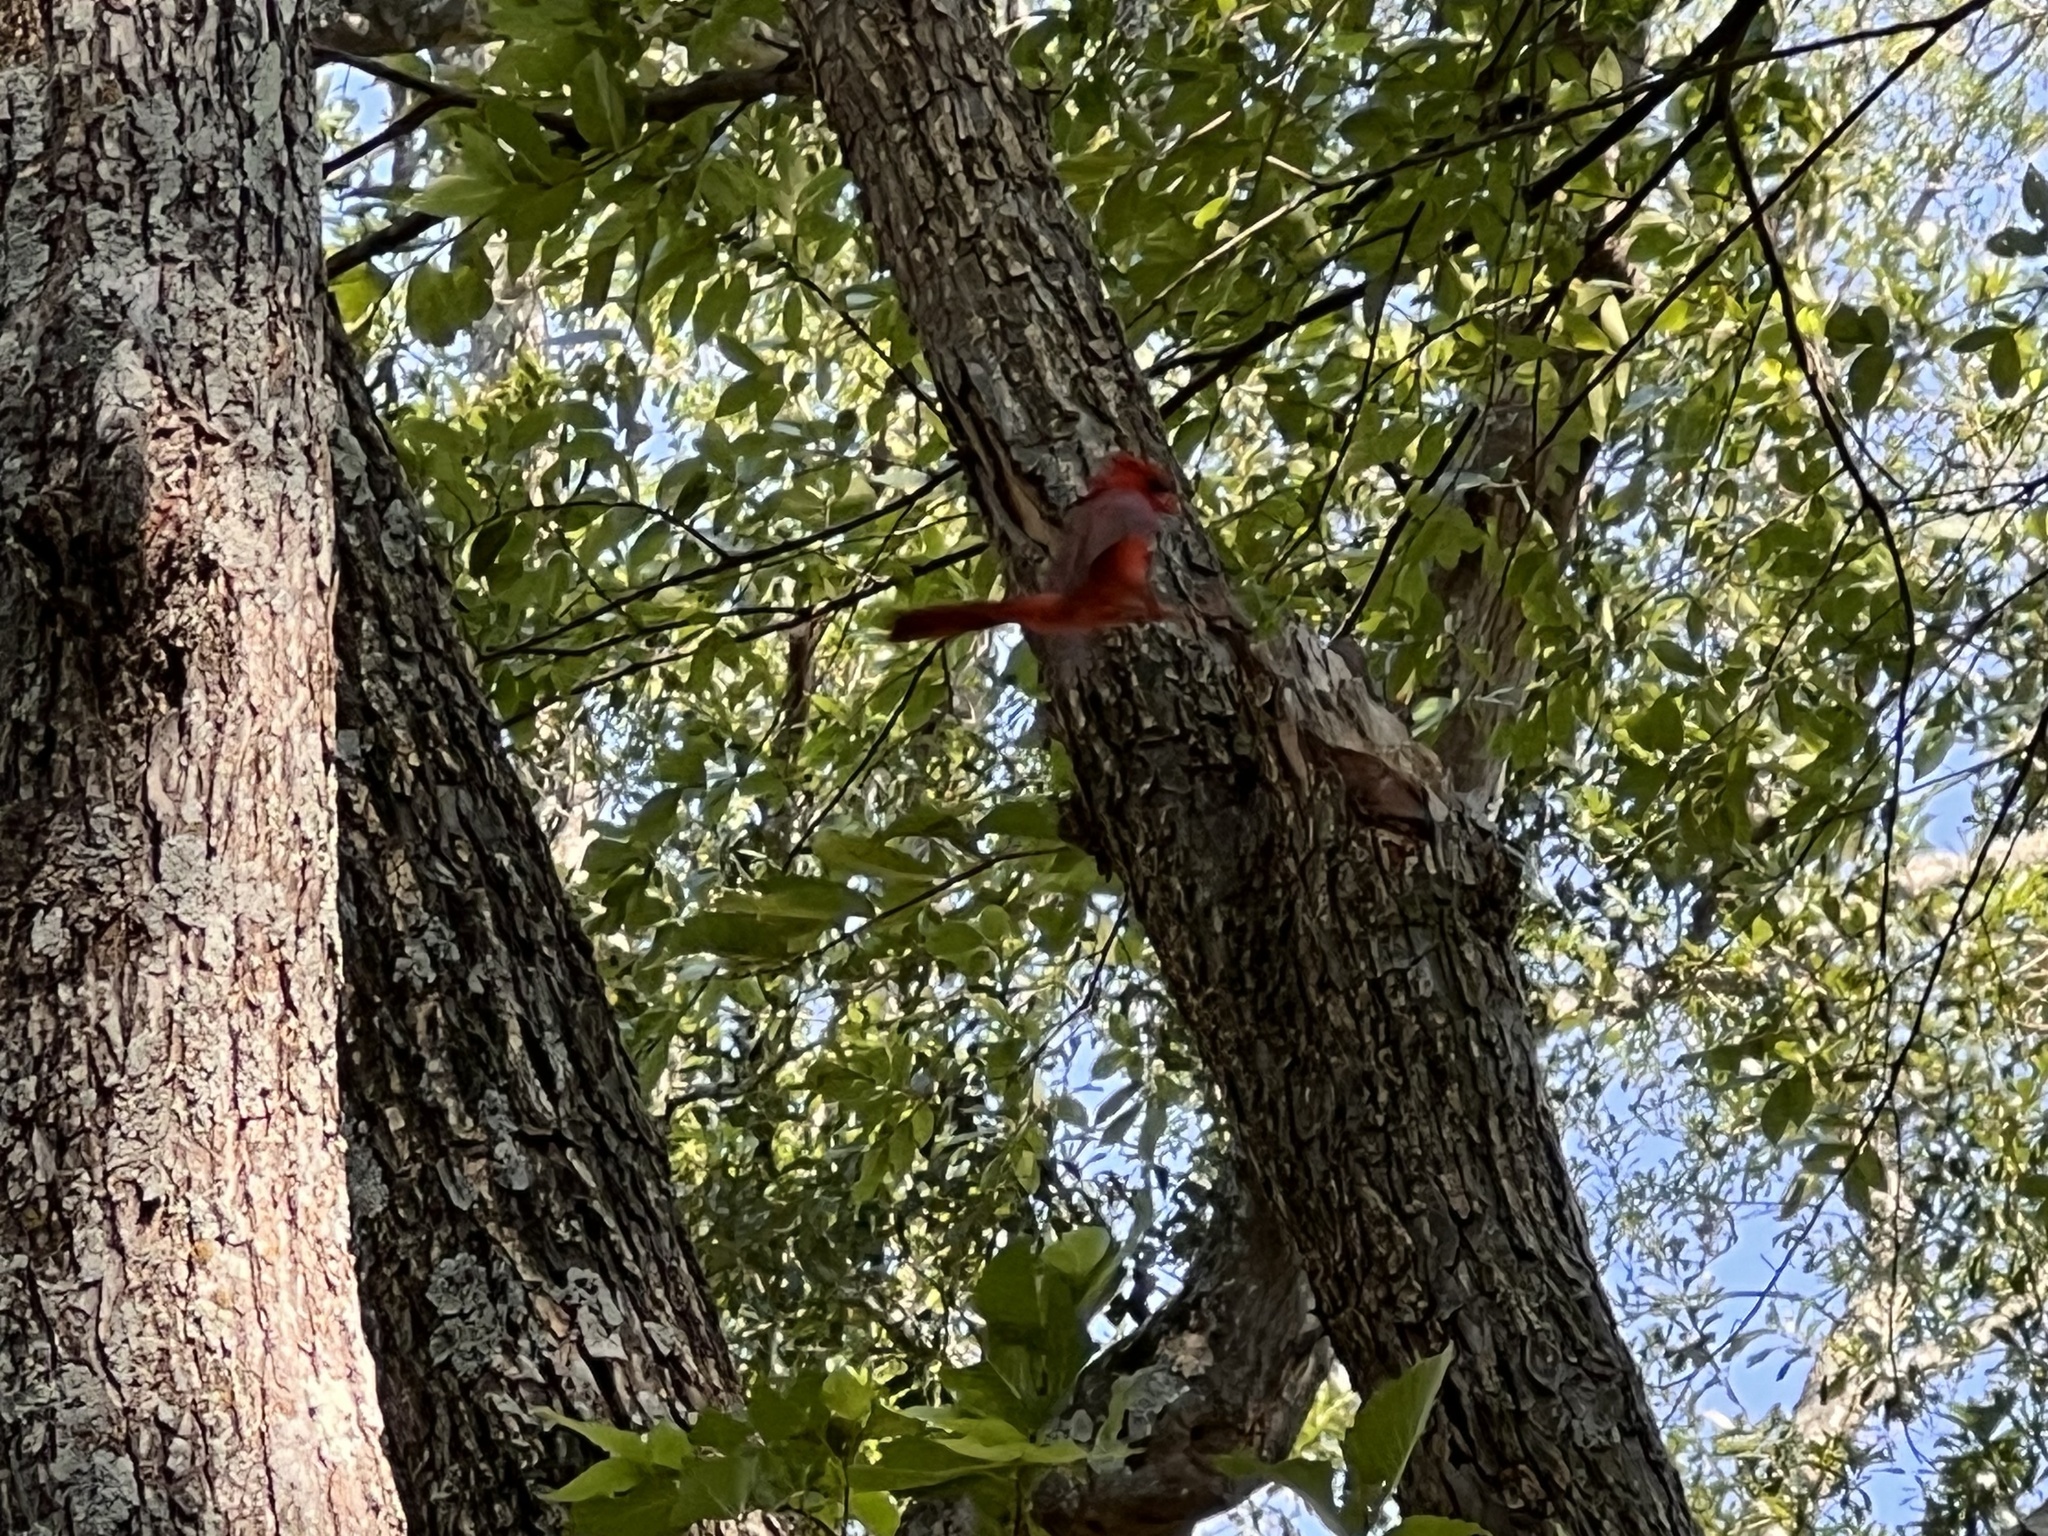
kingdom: Animalia
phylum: Chordata
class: Aves
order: Passeriformes
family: Cardinalidae
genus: Cardinalis
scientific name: Cardinalis cardinalis
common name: Northern cardinal
